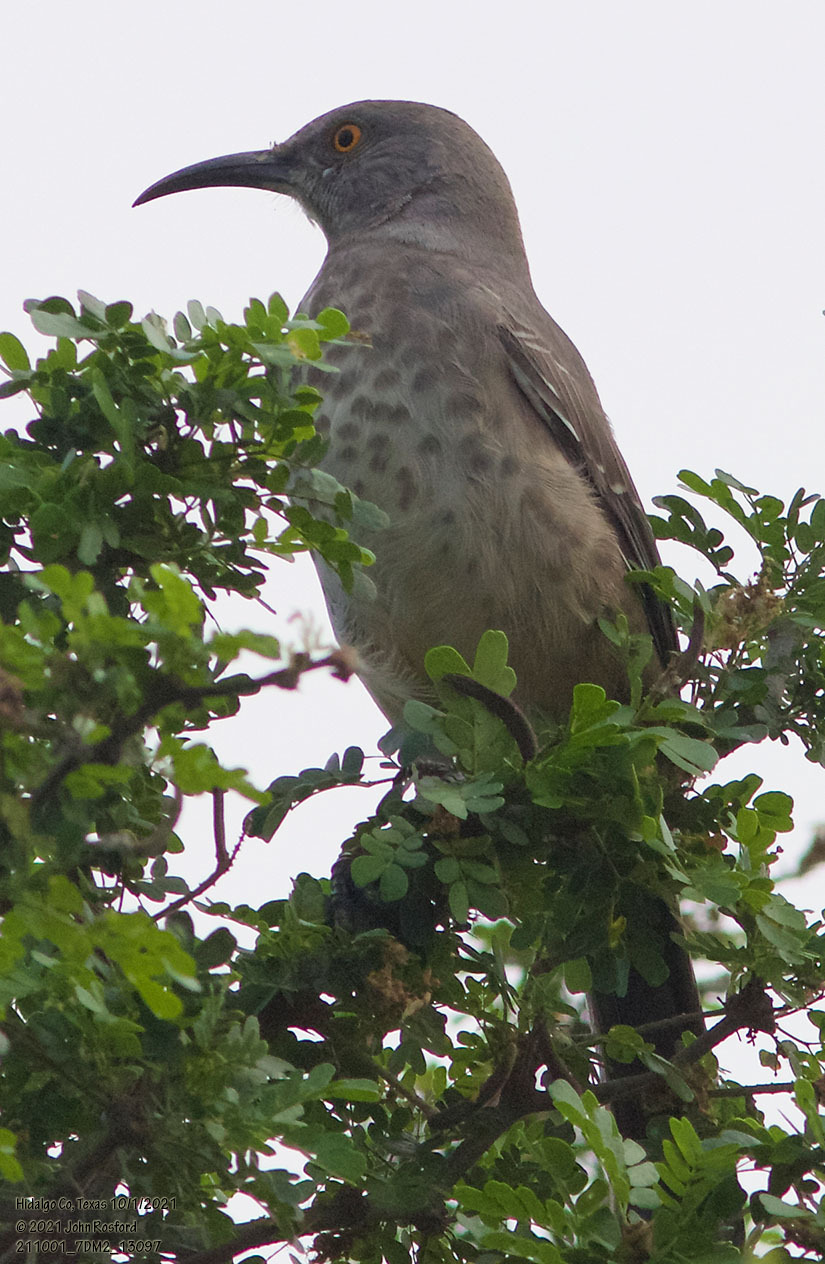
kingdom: Animalia
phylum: Chordata
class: Aves
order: Passeriformes
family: Mimidae
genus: Toxostoma
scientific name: Toxostoma curvirostre
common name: Curve-billed thrasher
